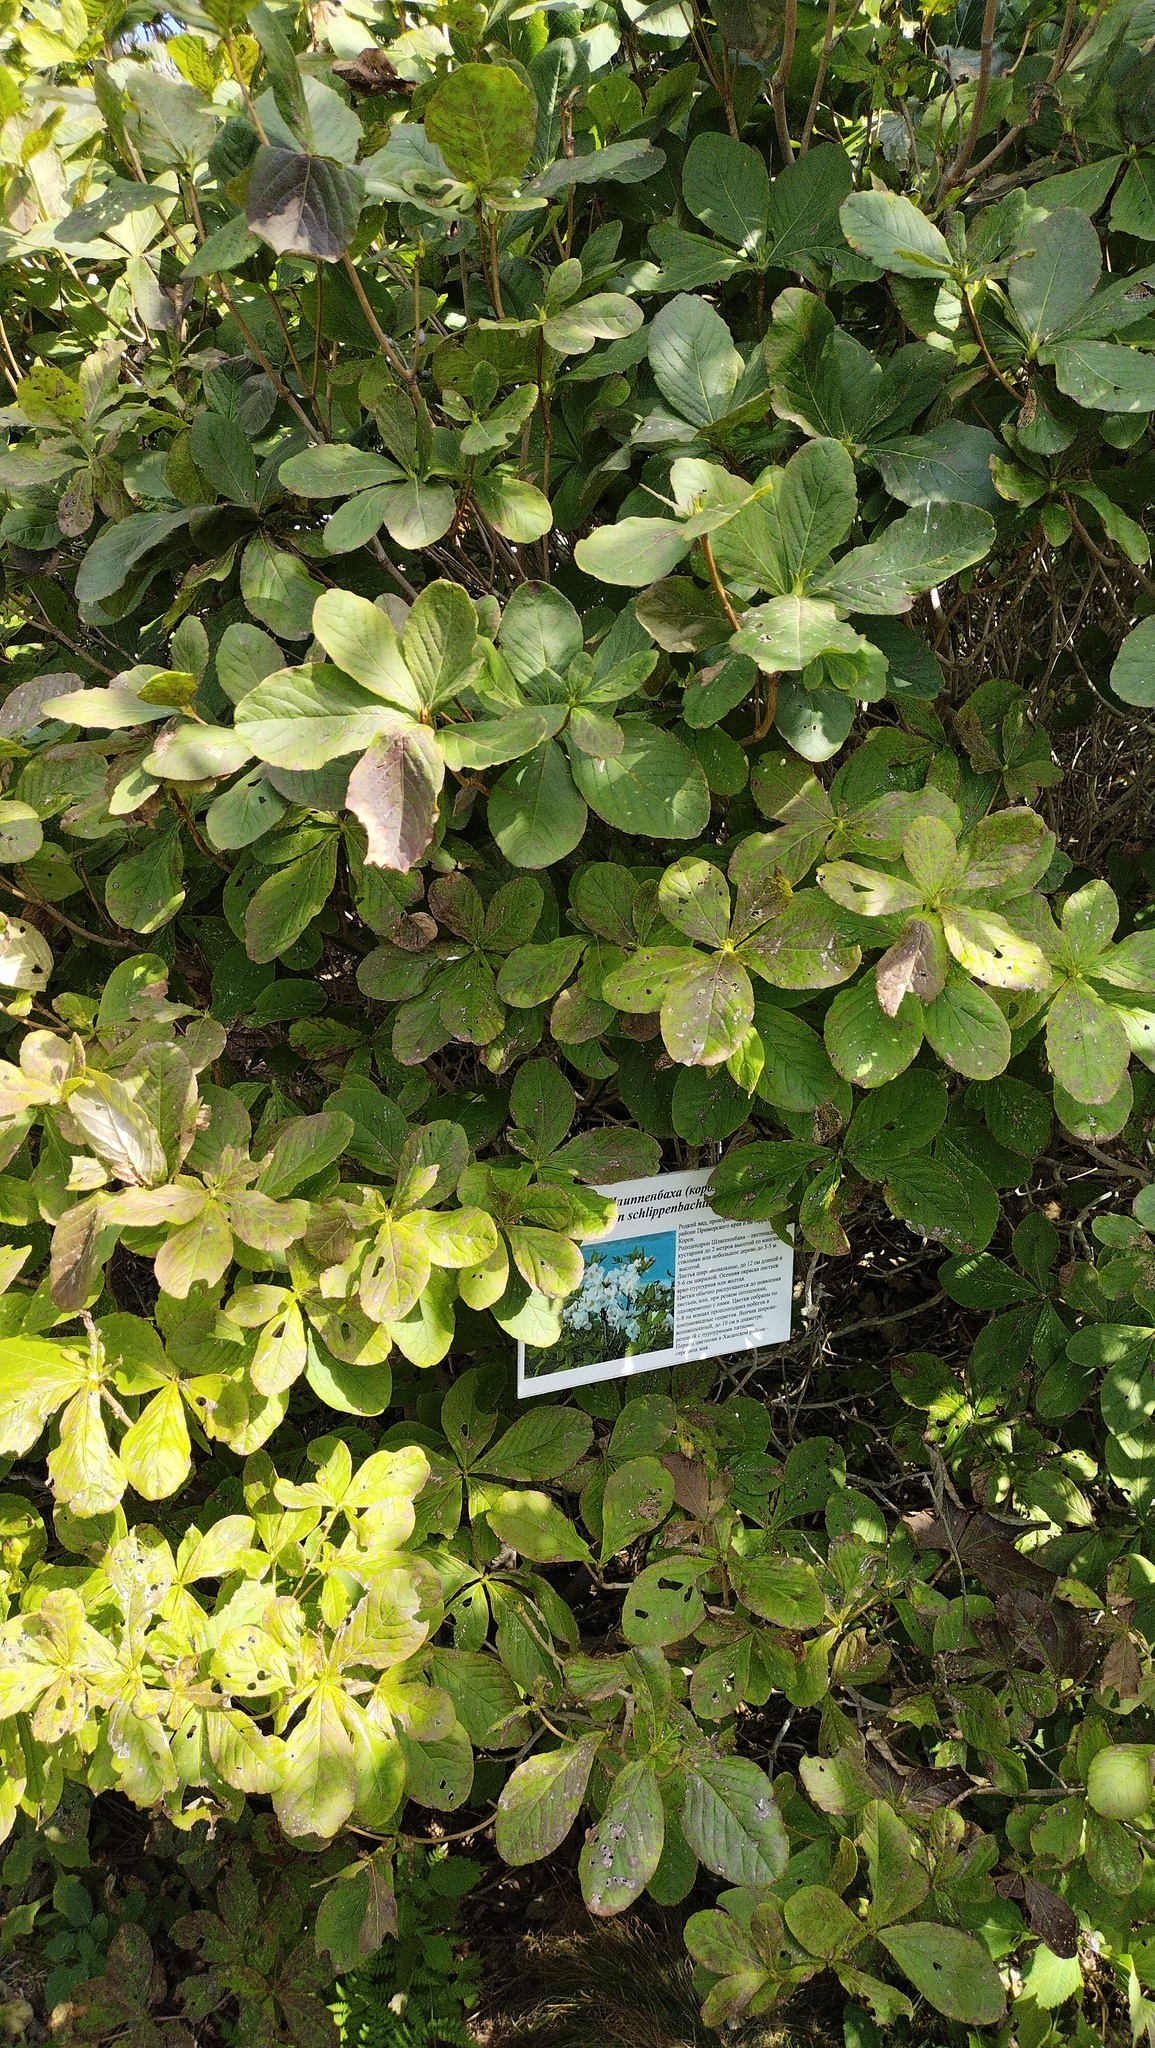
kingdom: Plantae
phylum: Tracheophyta
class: Magnoliopsida
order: Ericales
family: Ericaceae
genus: Rhododendron
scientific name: Rhododendron schlippenbachii
